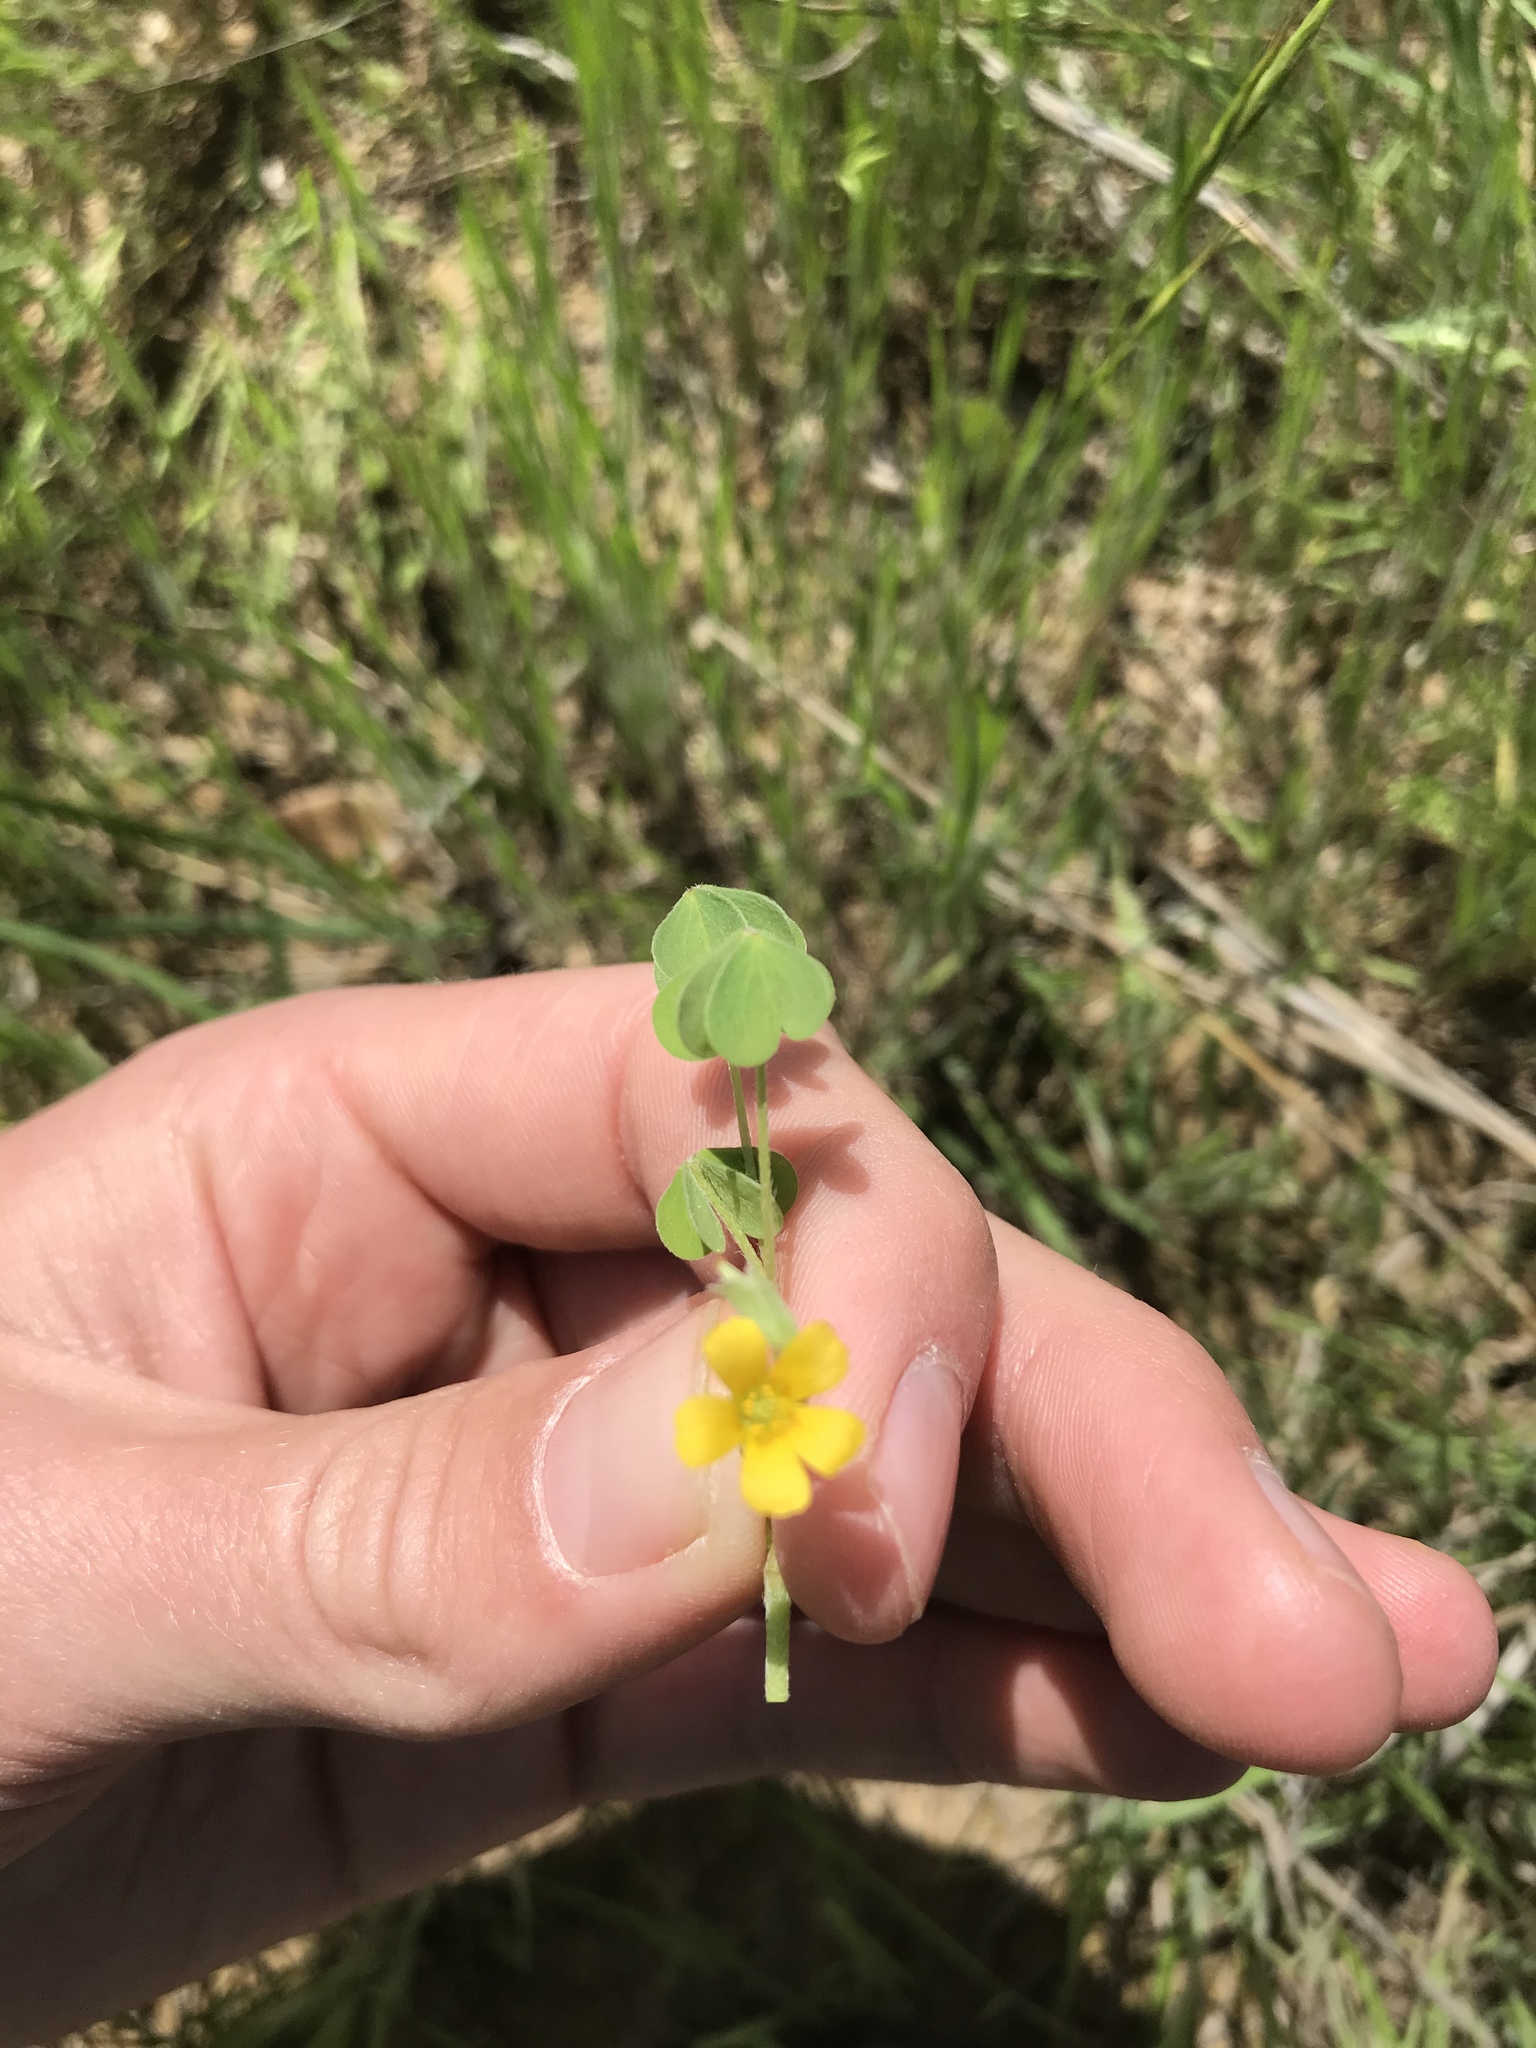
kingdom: Plantae
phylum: Tracheophyta
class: Magnoliopsida
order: Oxalidales
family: Oxalidaceae
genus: Oxalis
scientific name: Oxalis dillenii
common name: Sussex yellow-sorrel
